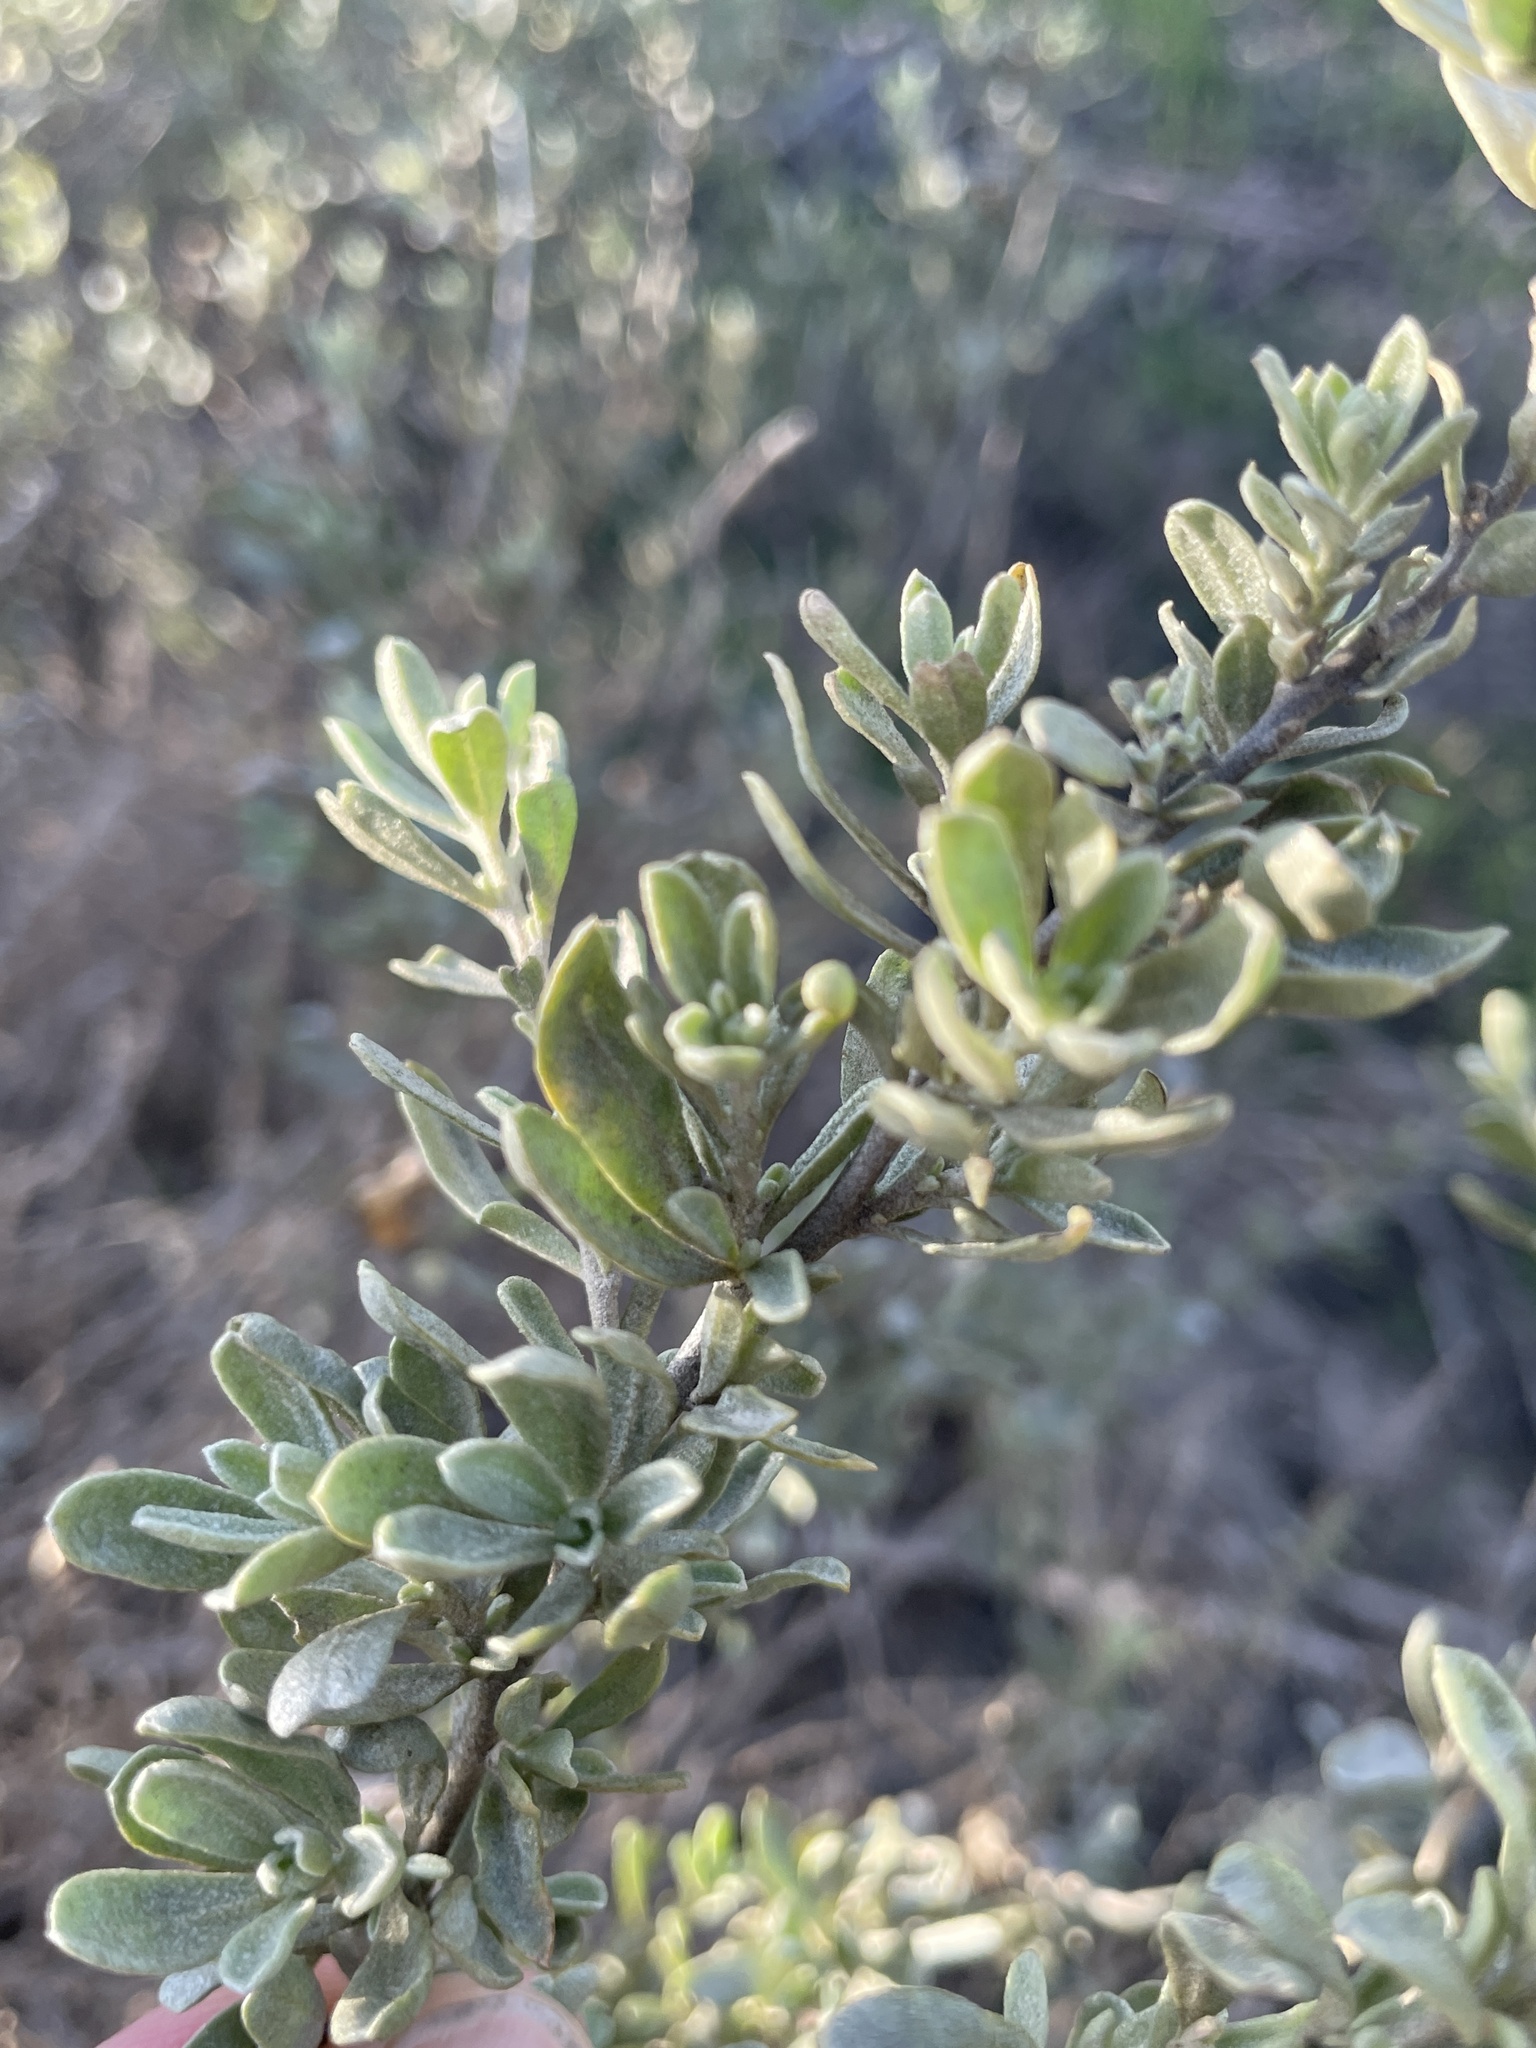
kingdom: Plantae
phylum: Tracheophyta
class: Magnoliopsida
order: Caryophyllales
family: Amaranthaceae
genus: Atriplex
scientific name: Atriplex canescens
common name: Four-wing saltbush
